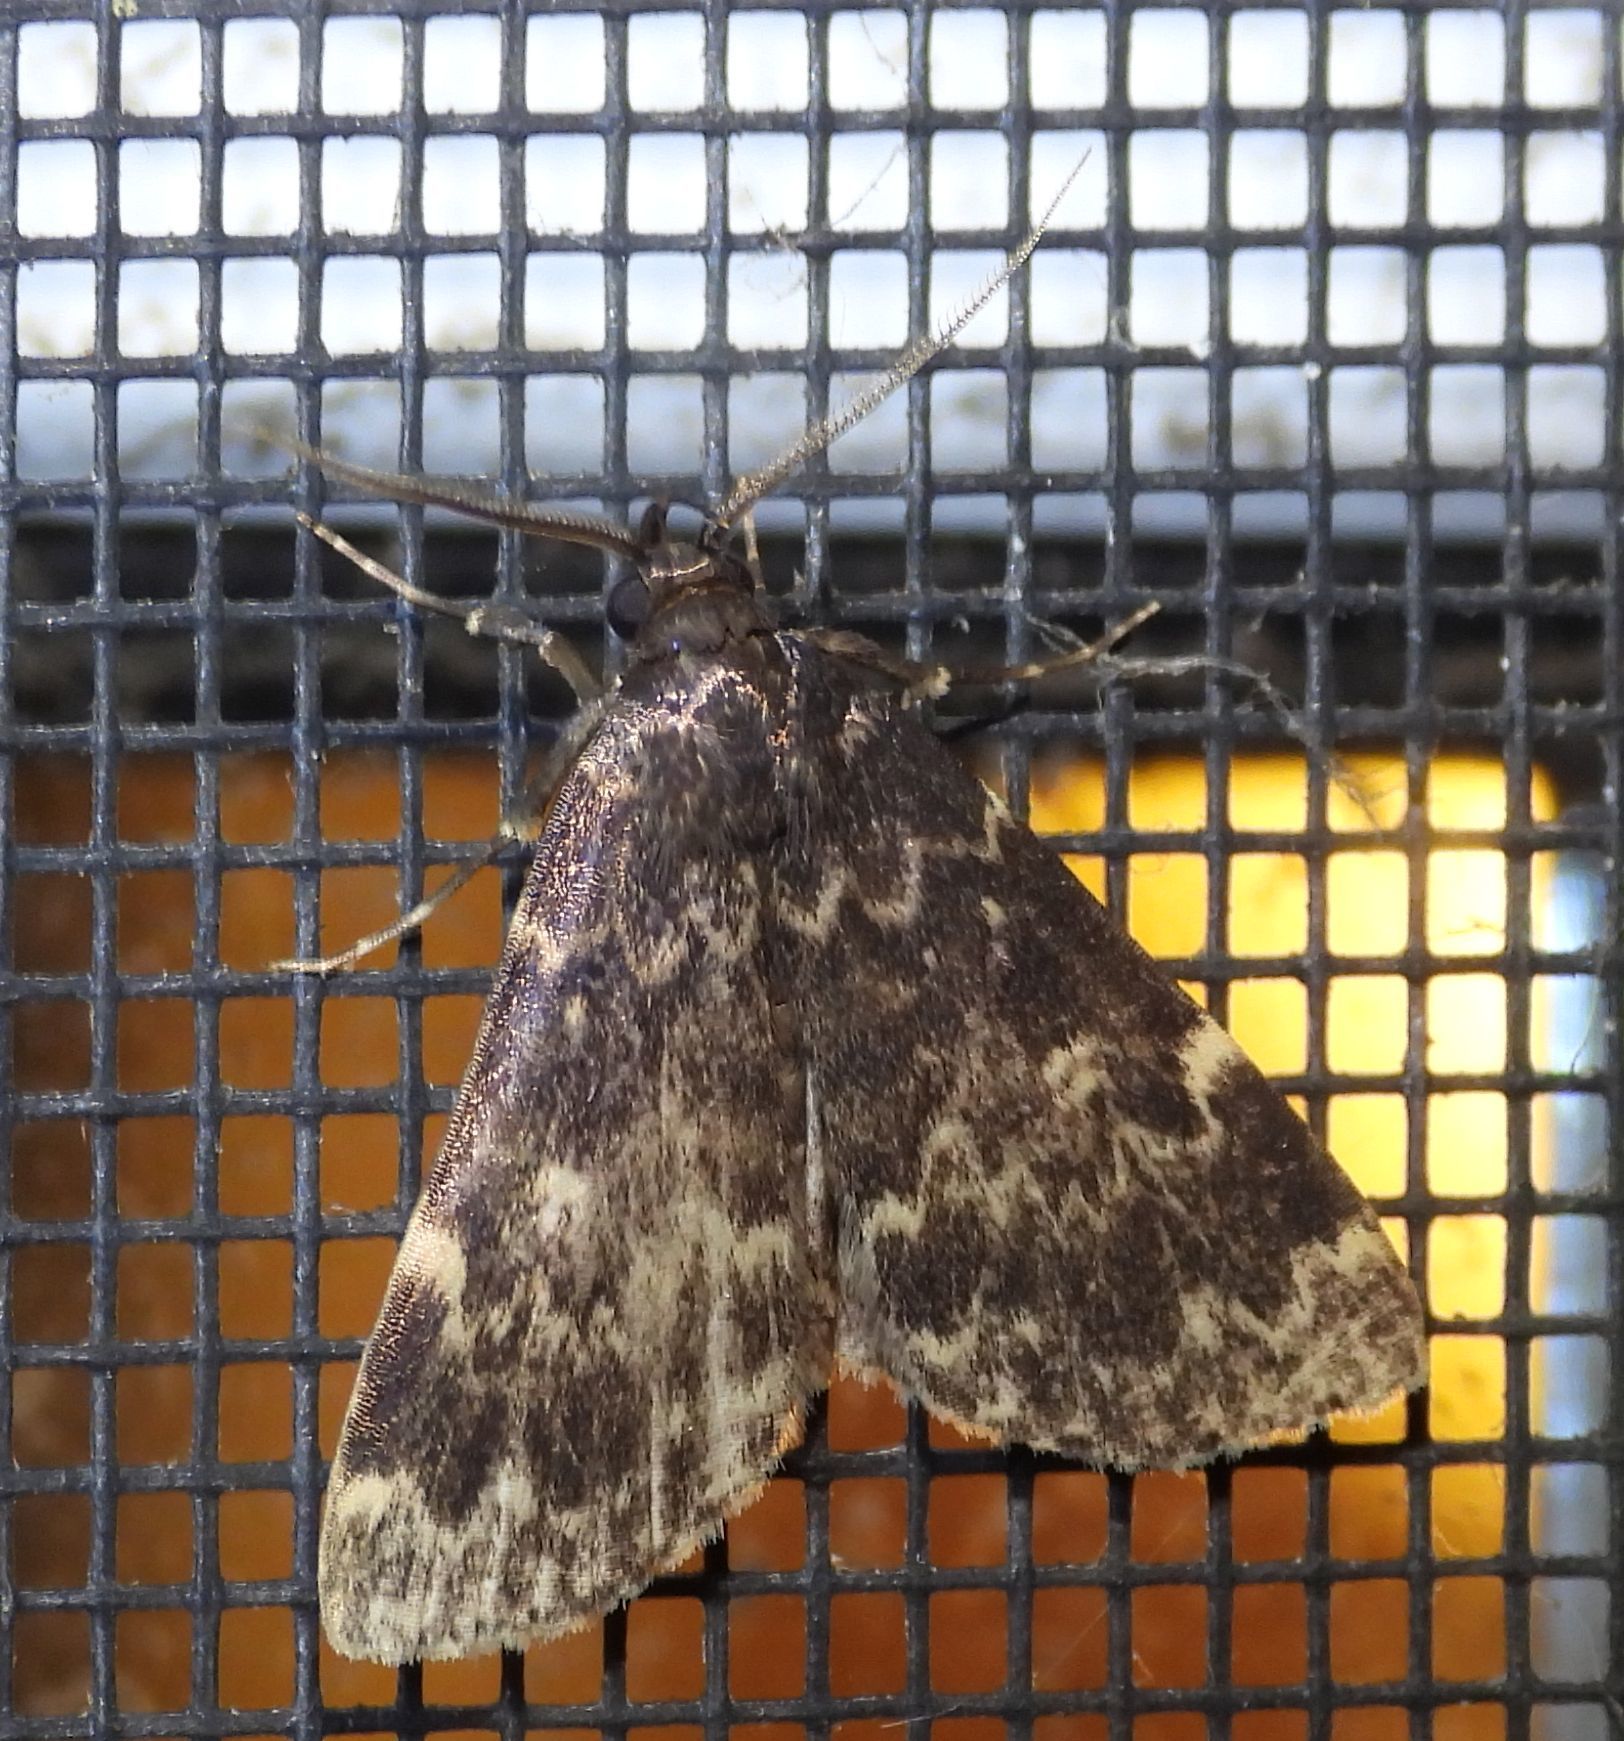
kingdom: Animalia
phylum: Arthropoda
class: Insecta
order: Lepidoptera
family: Erebidae
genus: Idia
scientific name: Idia lubricalis
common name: Twin-striped tabby
